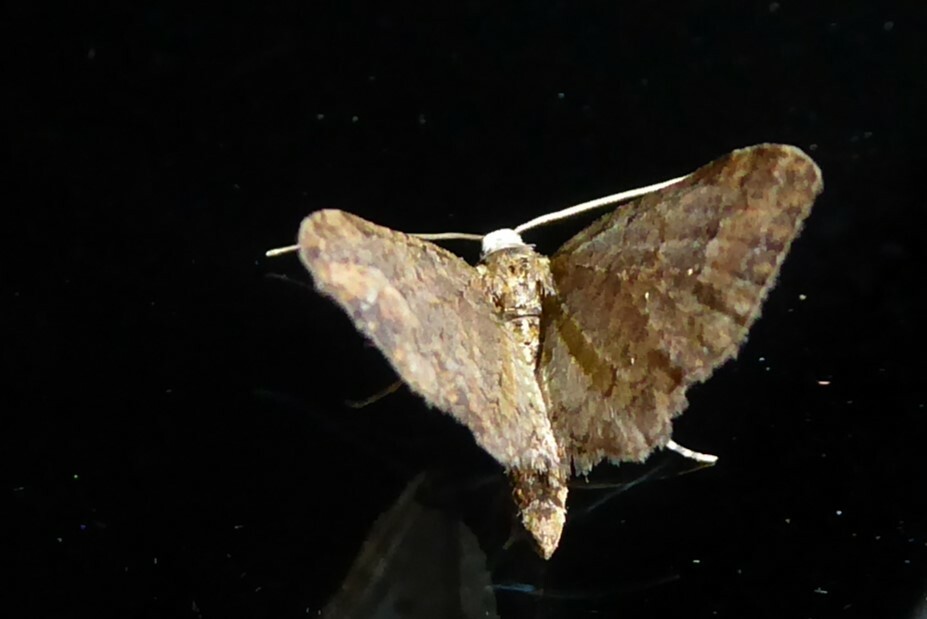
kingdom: Animalia
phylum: Arthropoda
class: Insecta
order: Lepidoptera
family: Geometridae
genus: Idaea
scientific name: Idaea mutanda
